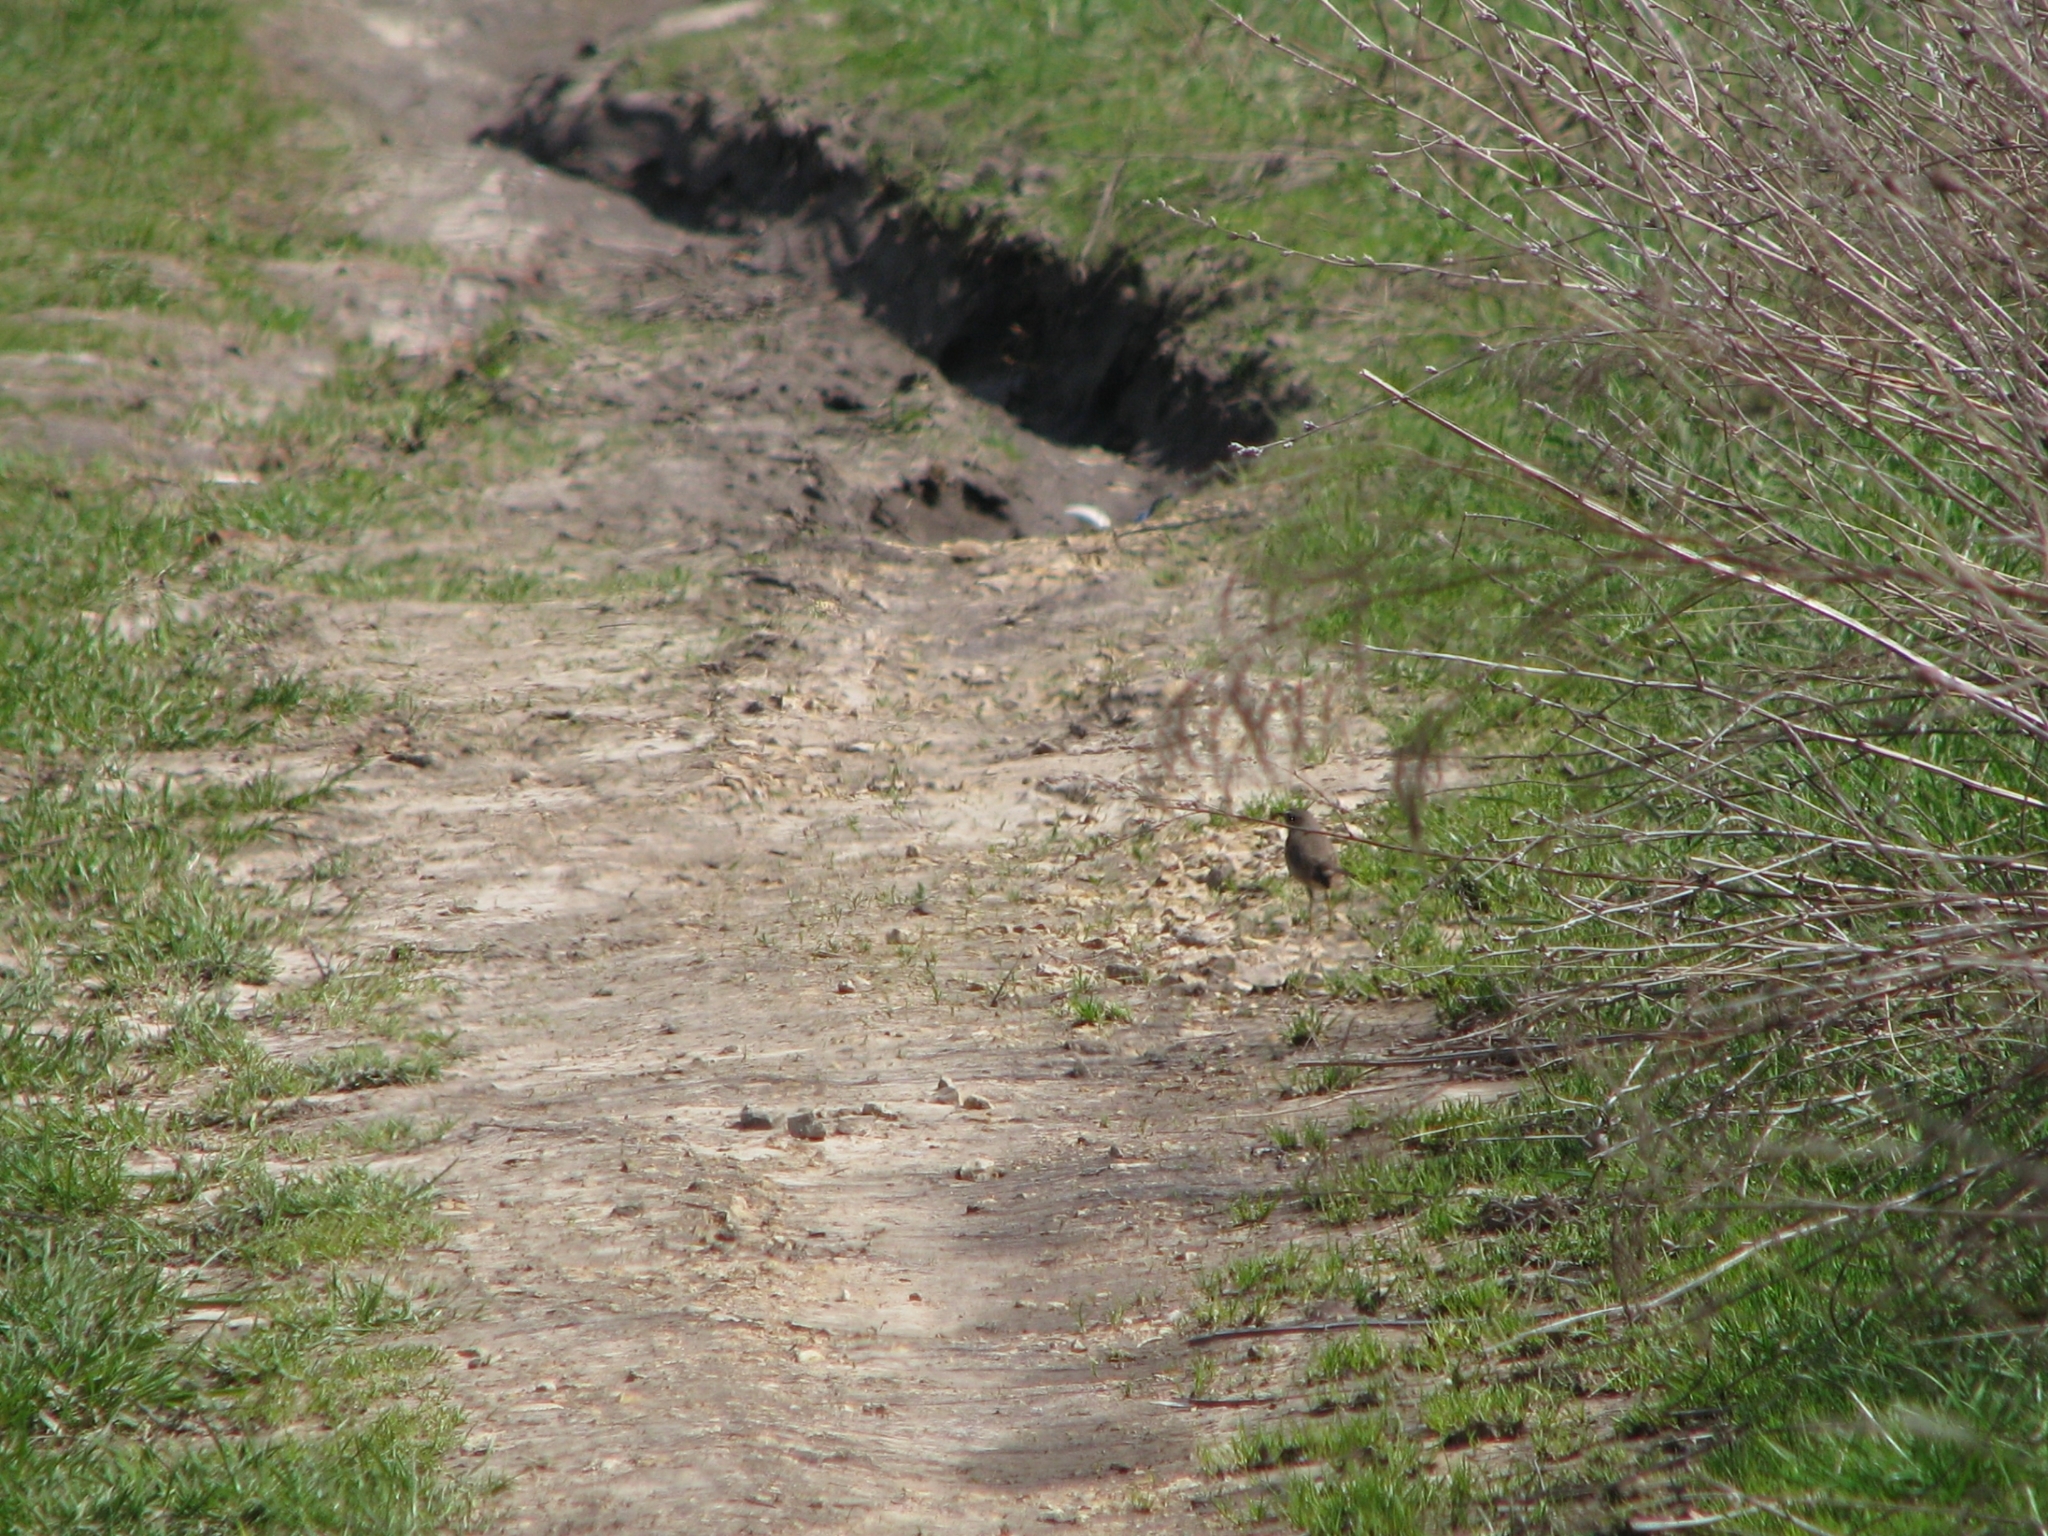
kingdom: Animalia
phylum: Chordata
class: Aves
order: Passeriformes
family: Muscicapidae
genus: Luscinia
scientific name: Luscinia svecica
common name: Bluethroat
